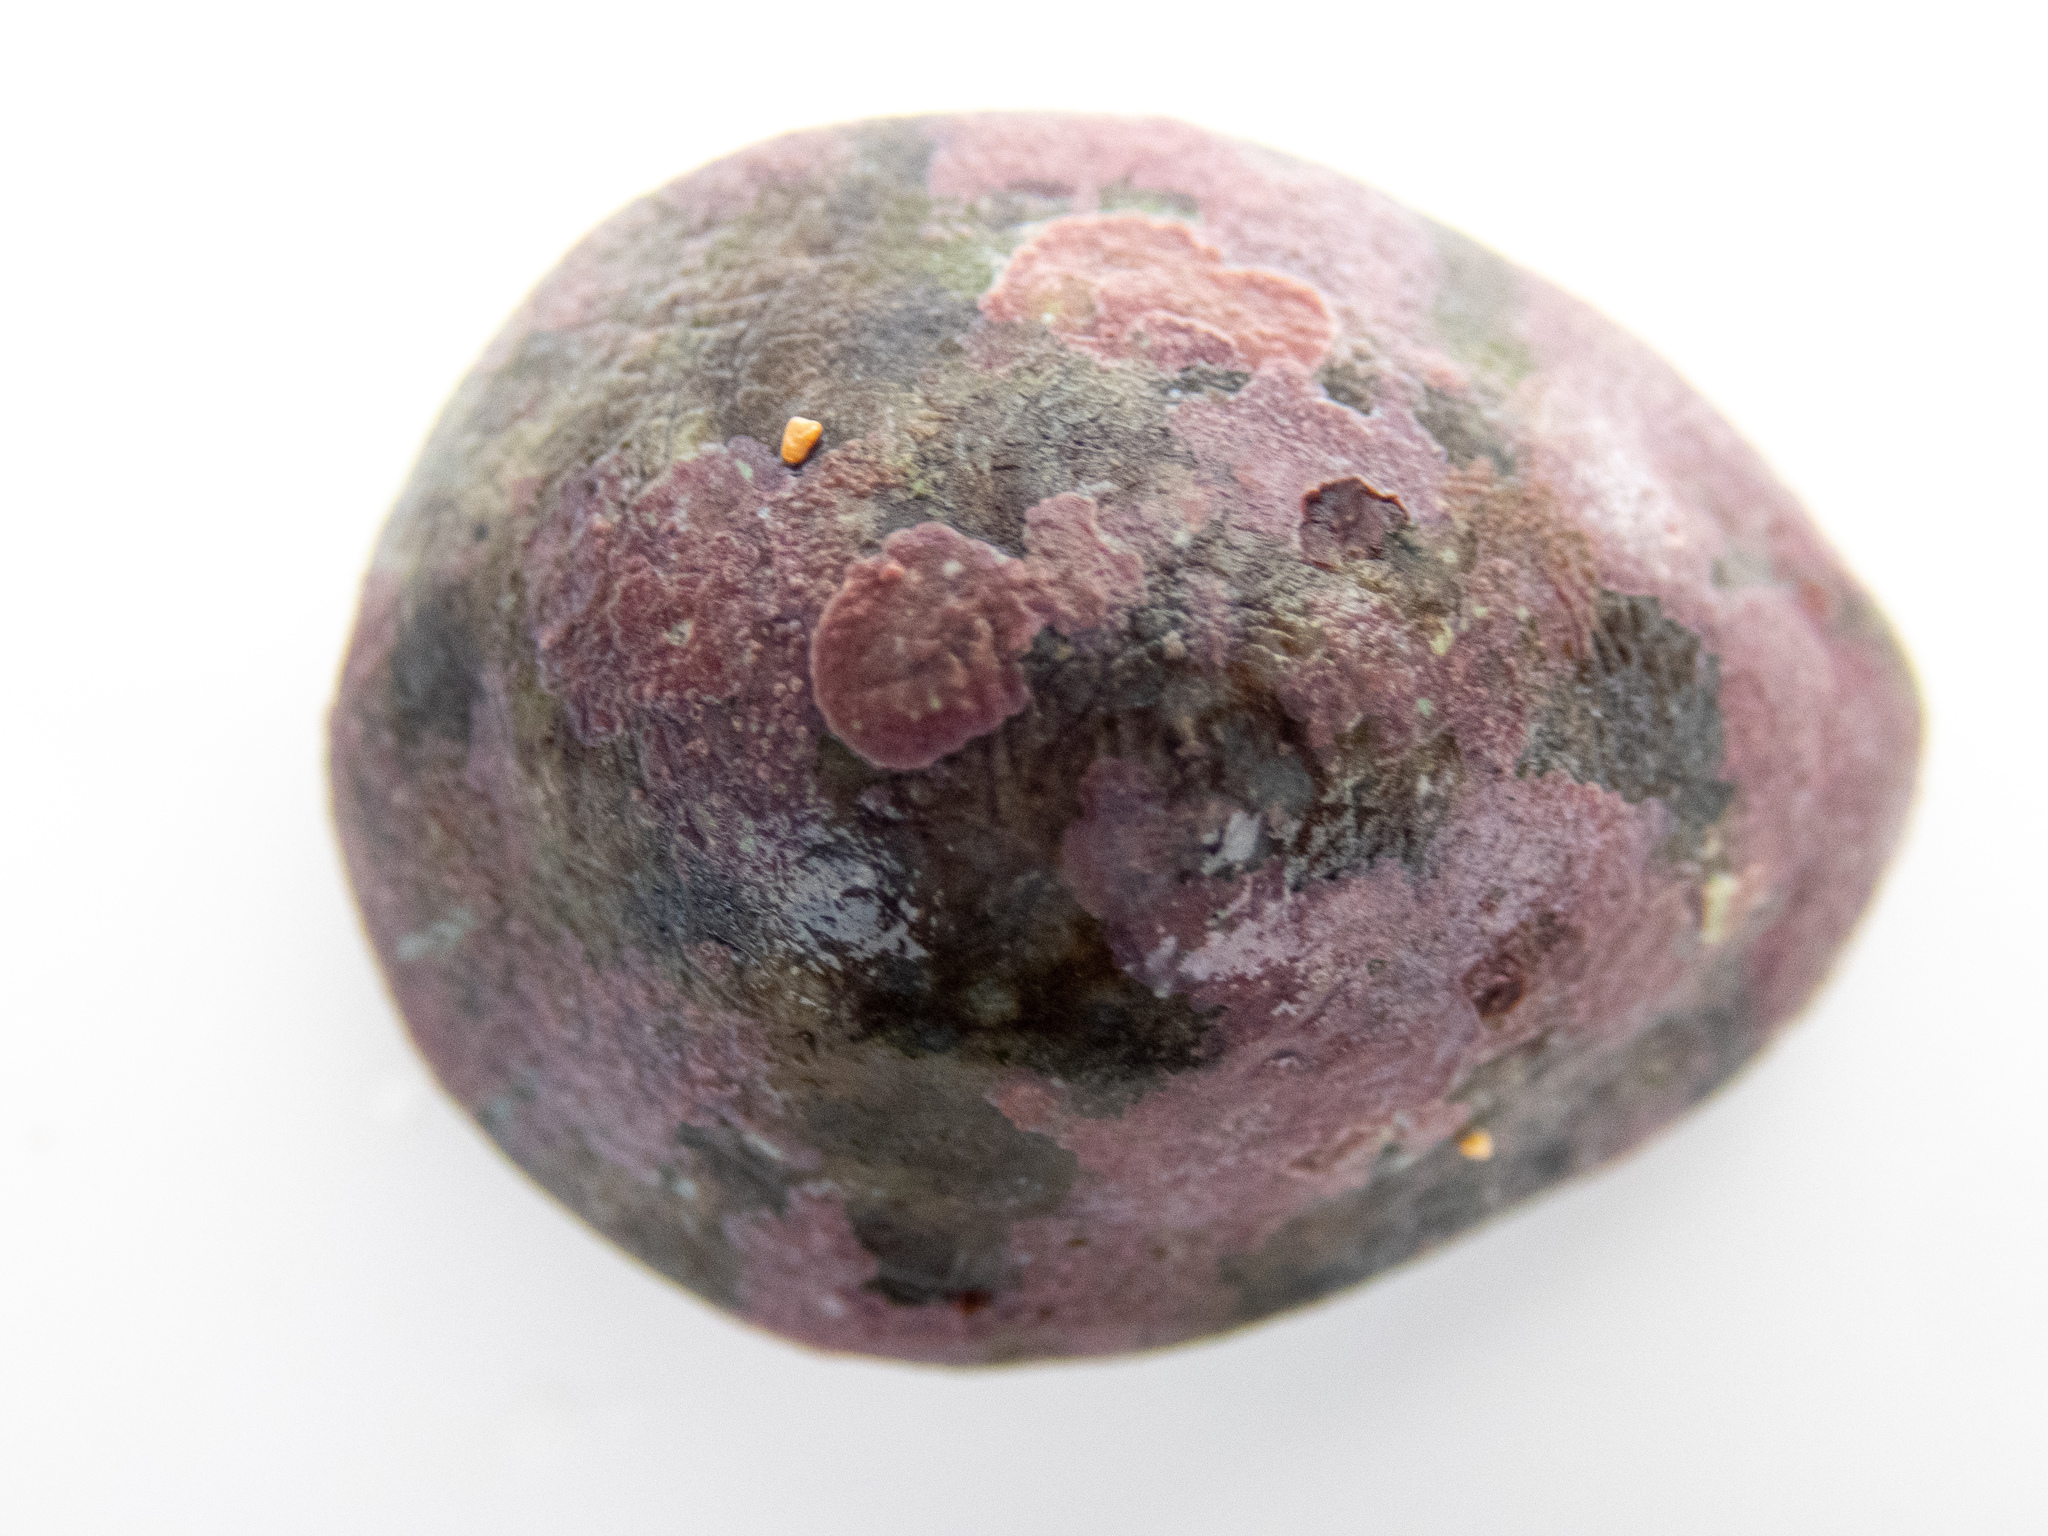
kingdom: Animalia
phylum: Mollusca
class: Gastropoda
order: Littorinimorpha
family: Cypraeidae
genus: Monetaria
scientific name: Monetaria caputophidii
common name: Snake's head cowry
